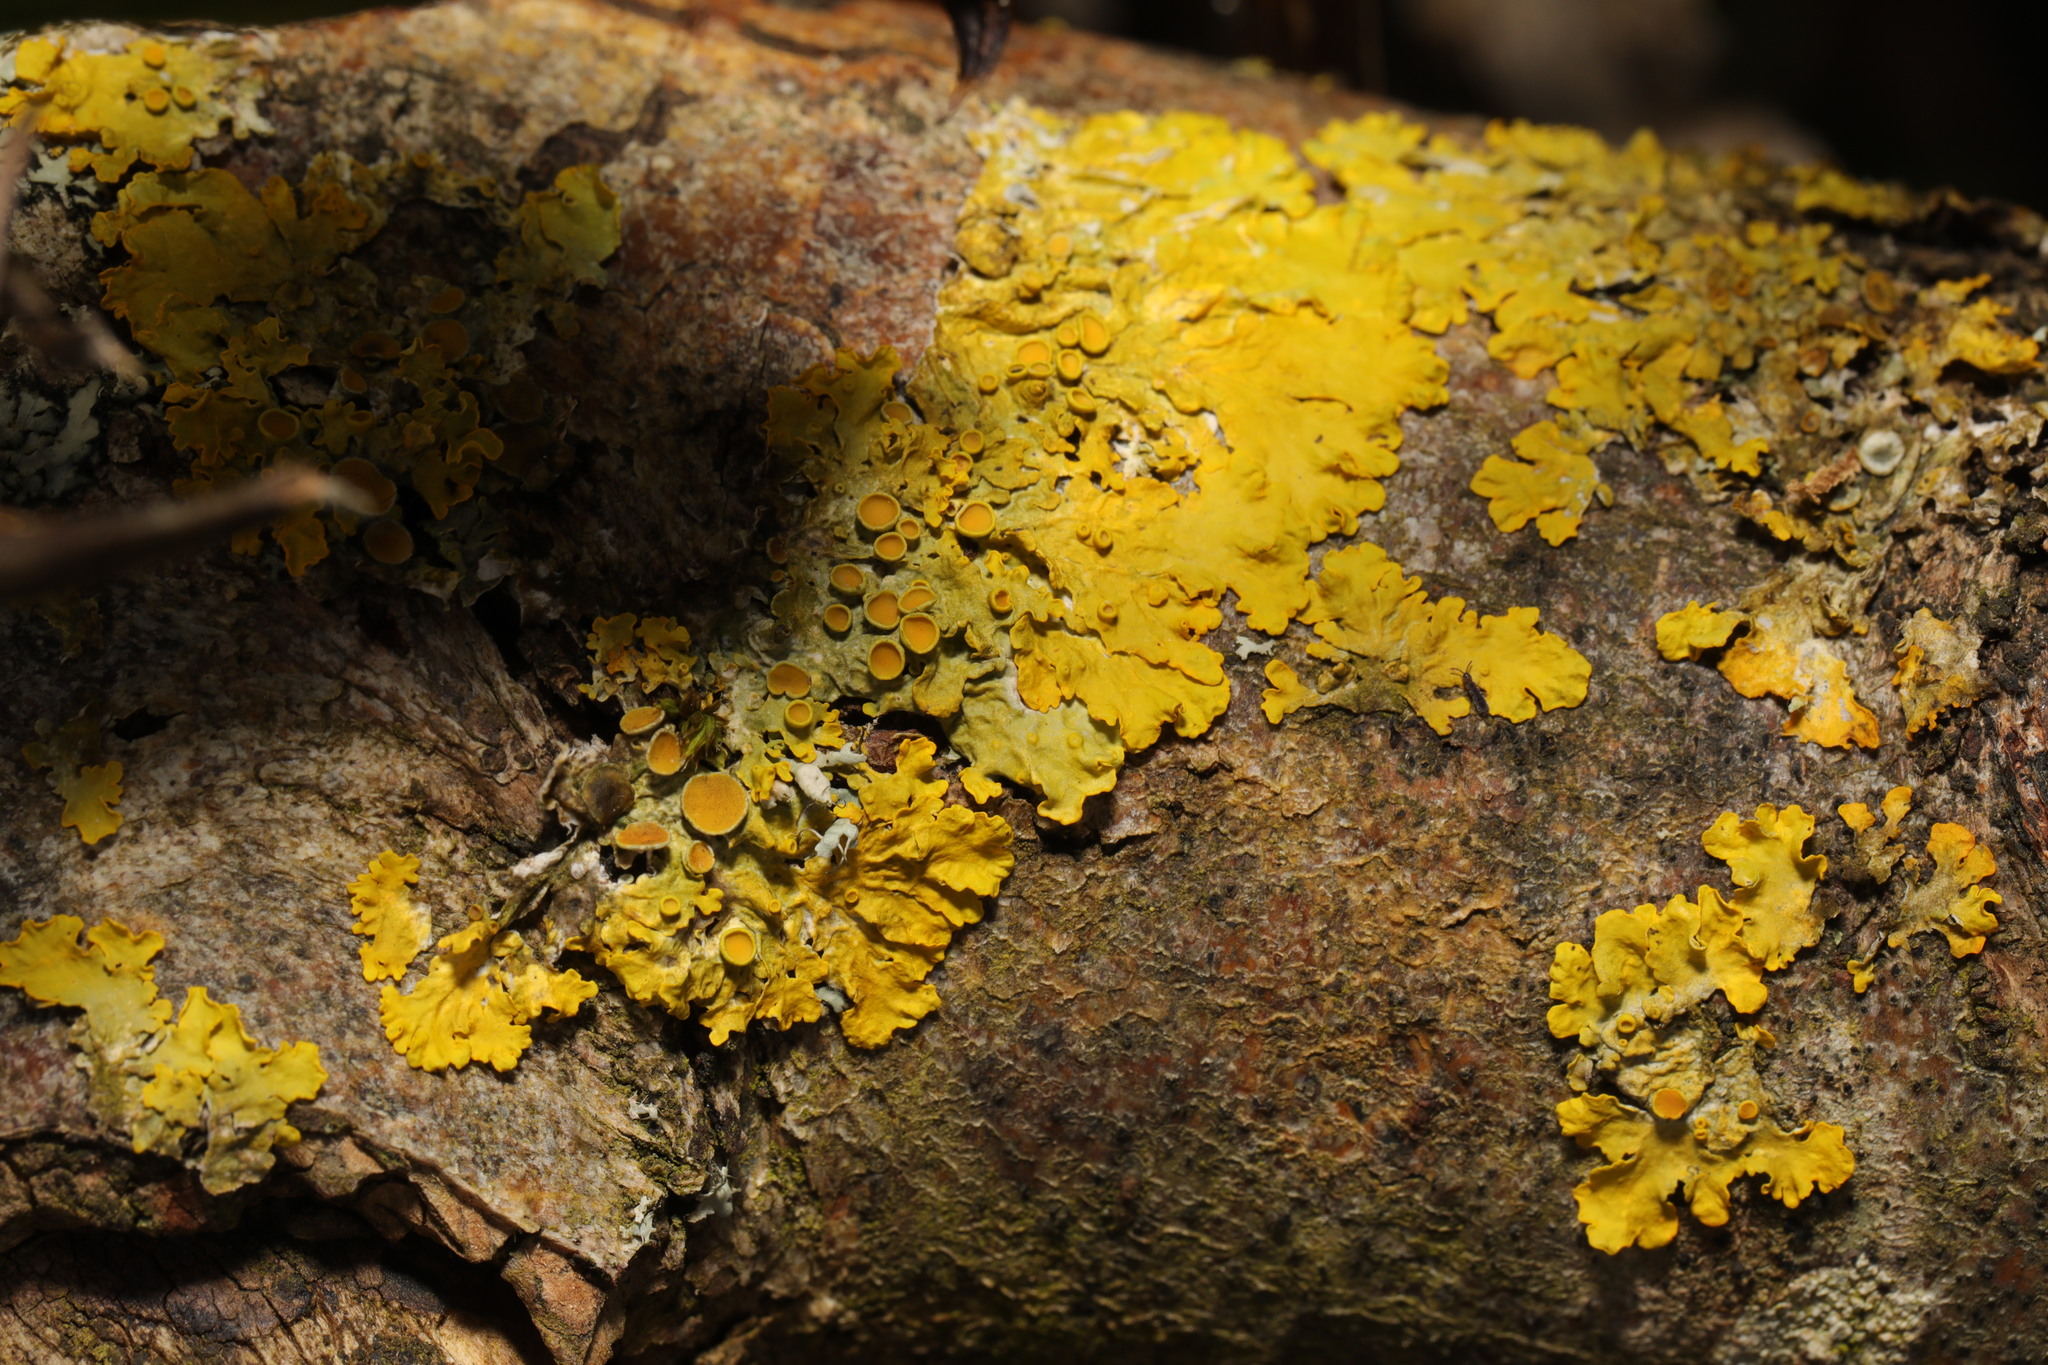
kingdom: Fungi
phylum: Ascomycota
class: Lecanoromycetes
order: Teloschistales
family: Teloschistaceae
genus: Xanthoria
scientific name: Xanthoria parietina
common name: Common orange lichen
